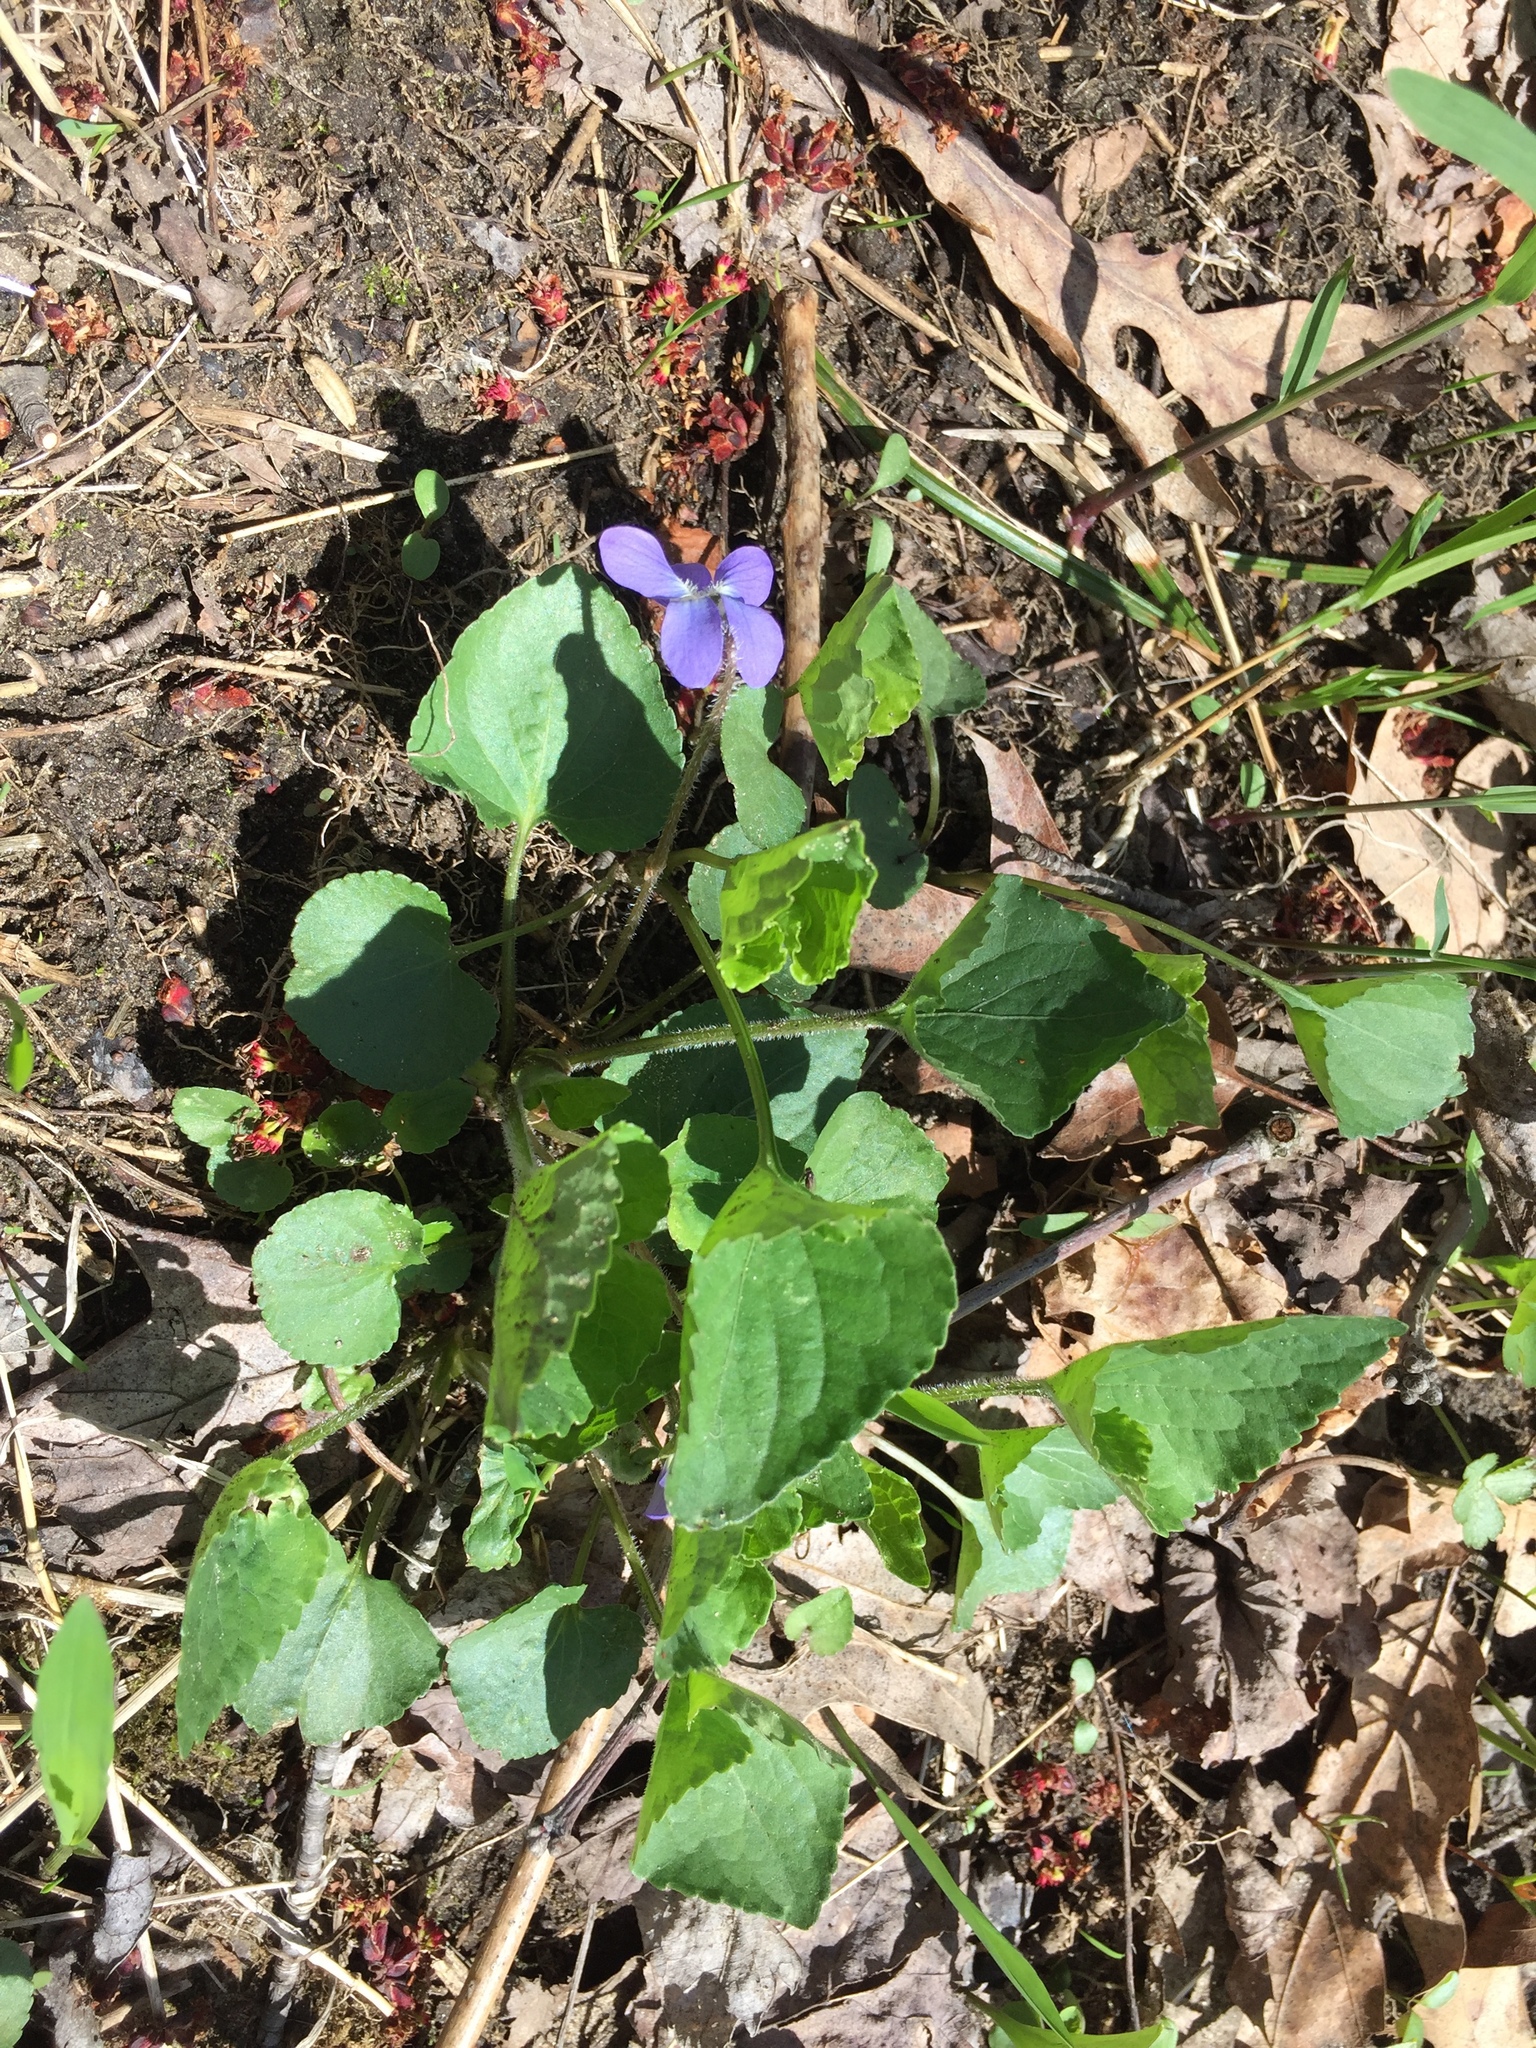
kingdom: Plantae
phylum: Tracheophyta
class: Magnoliopsida
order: Malpighiales
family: Violaceae
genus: Viola
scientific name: Viola sororia
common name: Dooryard violet
